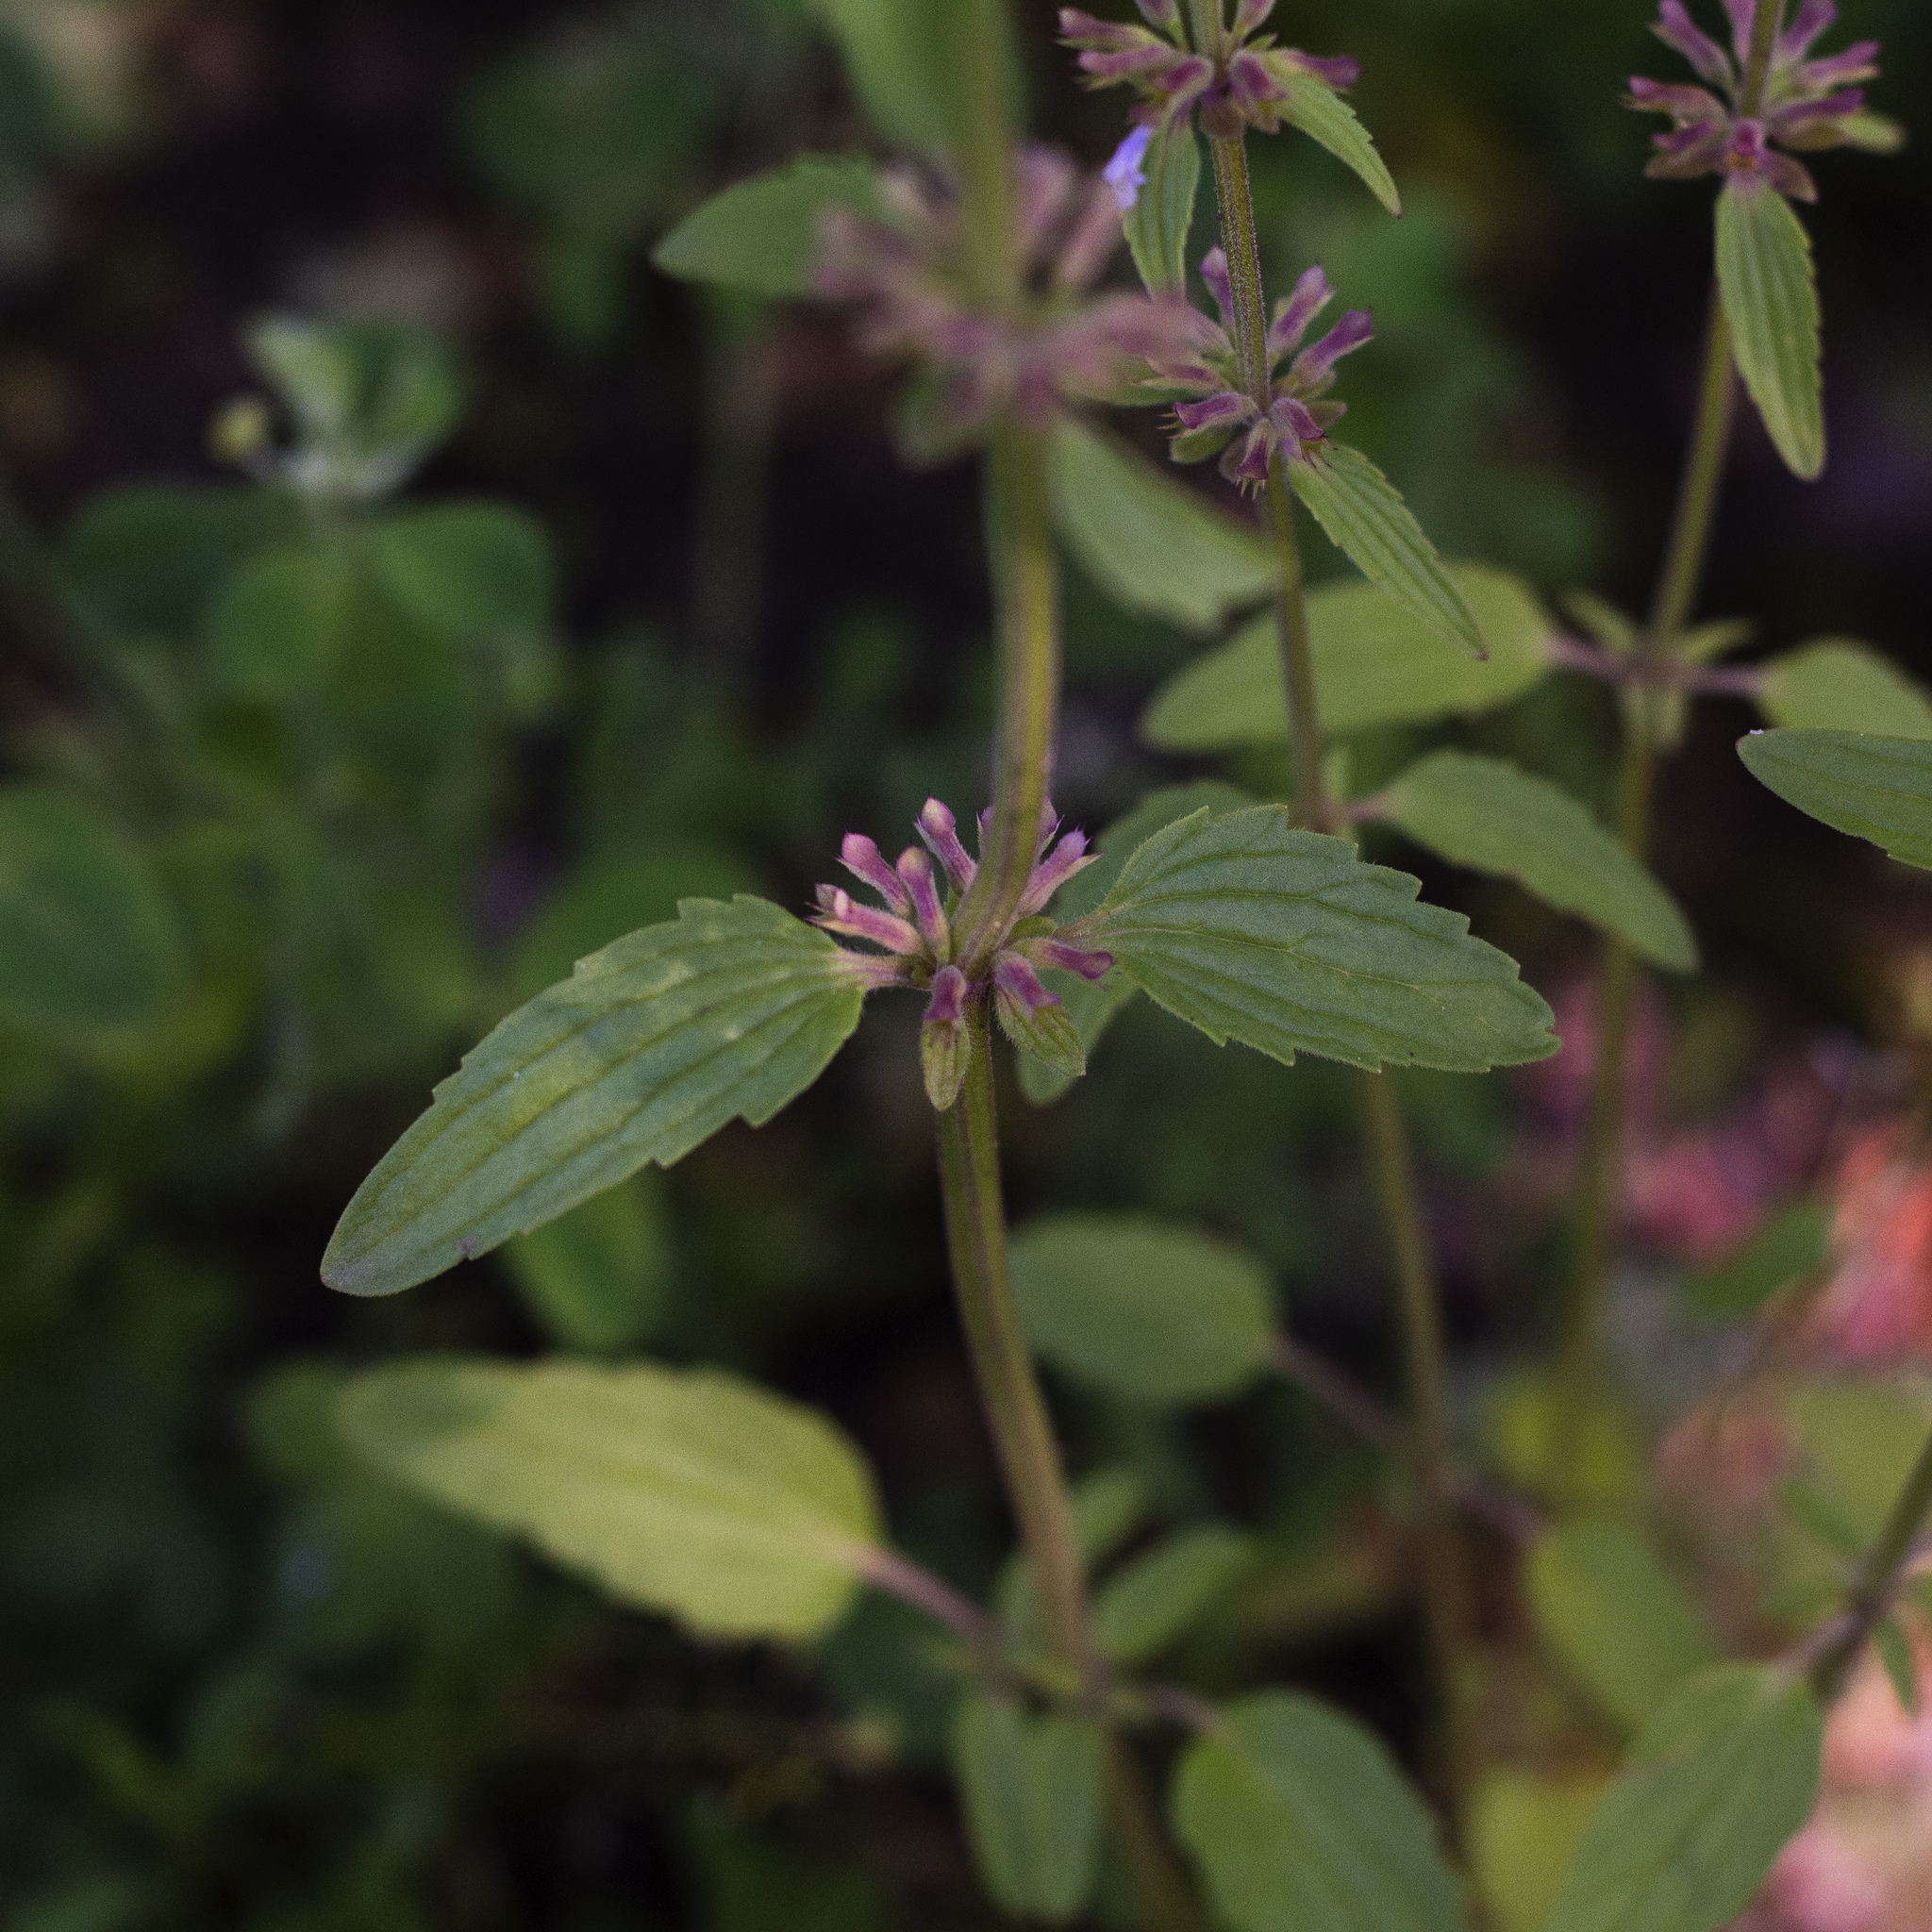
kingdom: Plantae
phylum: Tracheophyta
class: Magnoliopsida
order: Lamiales
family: Lamiaceae
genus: Dracocephalum
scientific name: Dracocephalum thymiflorum
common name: Thymeleaf dragonhead
